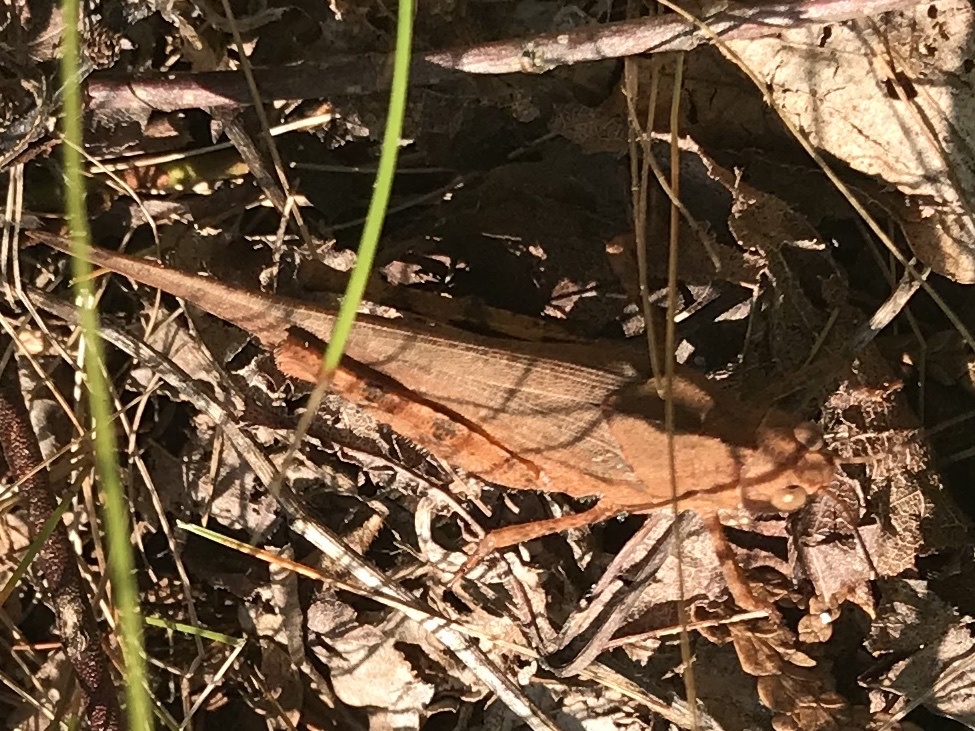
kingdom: Animalia
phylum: Arthropoda
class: Insecta
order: Orthoptera
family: Acrididae
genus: Dissosteira
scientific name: Dissosteira carolina
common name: Carolina grasshopper
